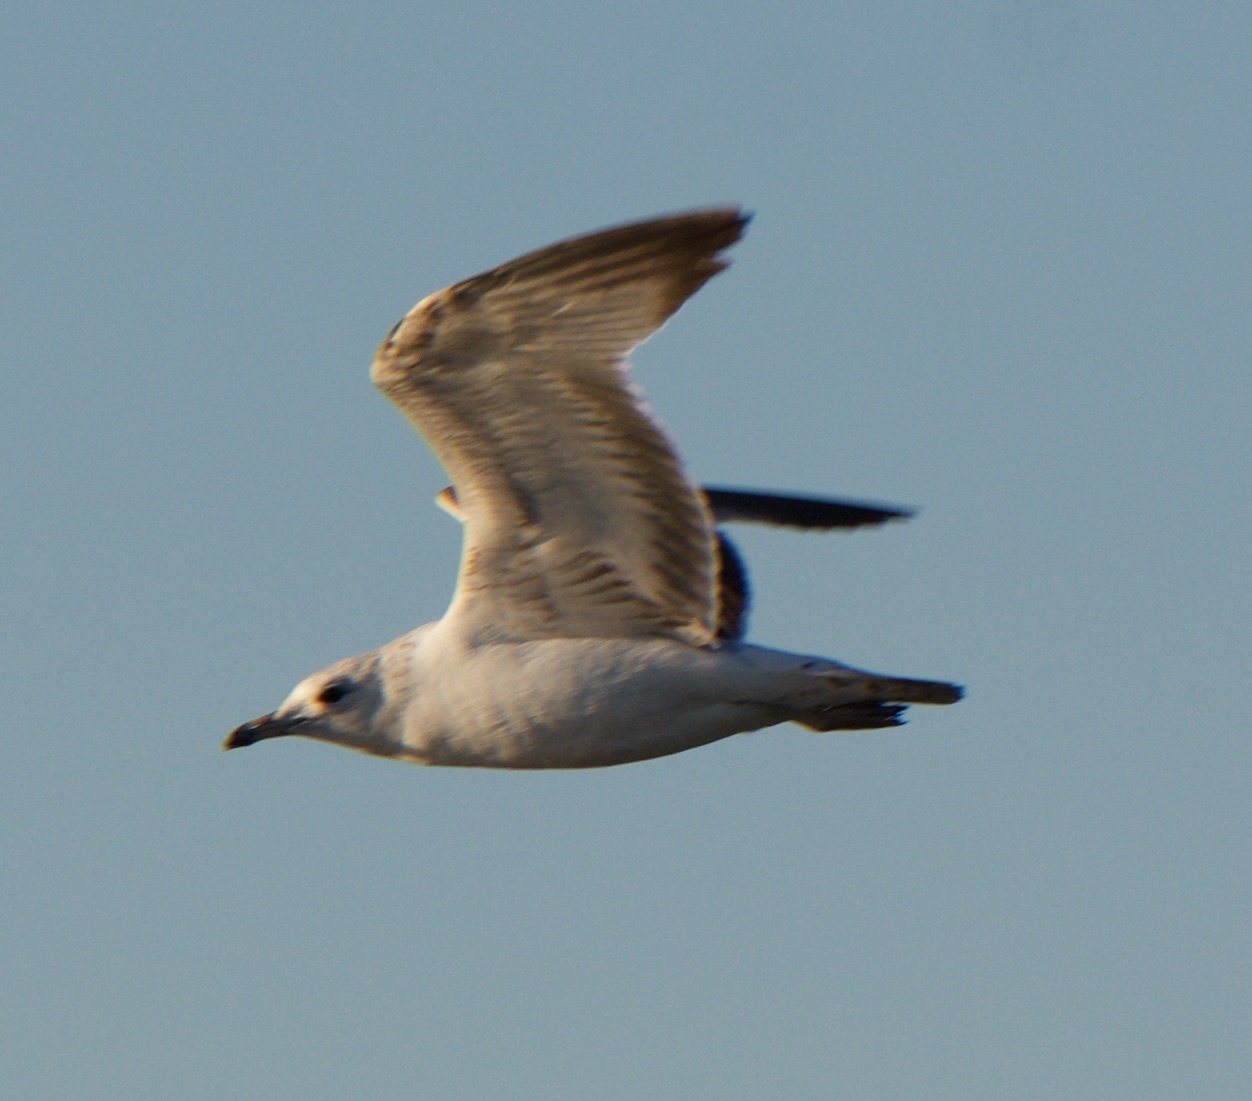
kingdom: Animalia
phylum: Chordata
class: Aves
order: Charadriiformes
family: Laridae
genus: Larus
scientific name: Larus delawarensis
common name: Ring-billed gull
